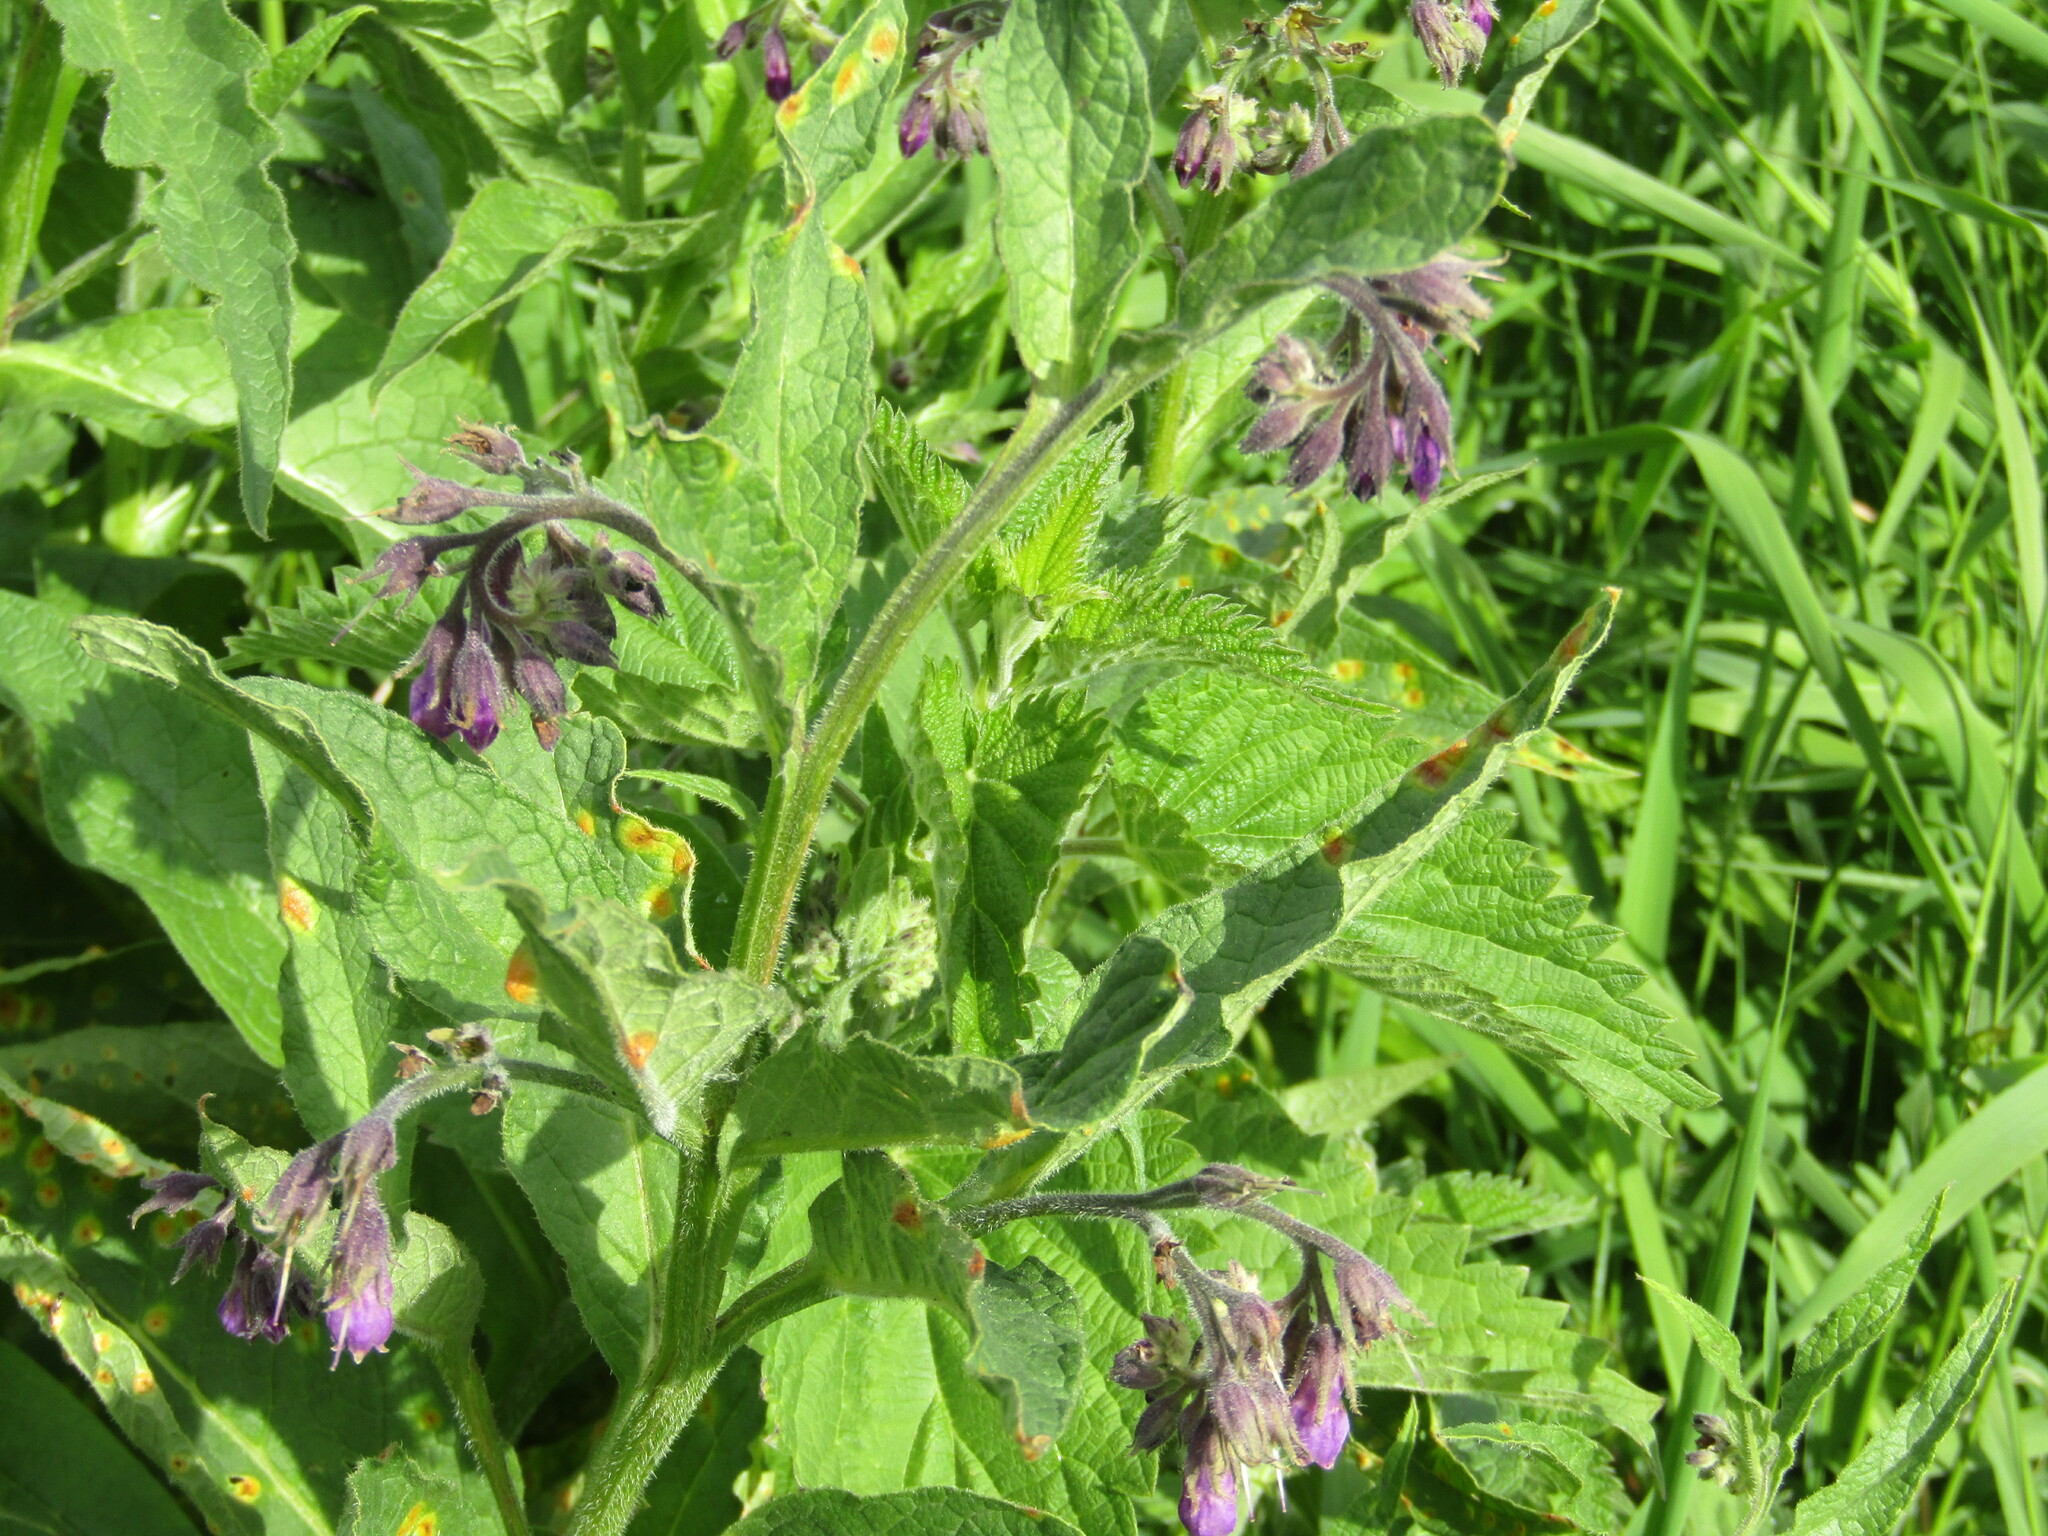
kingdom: Plantae
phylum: Tracheophyta
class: Magnoliopsida
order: Boraginales
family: Boraginaceae
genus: Symphytum
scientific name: Symphytum officinale
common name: Common comfrey
